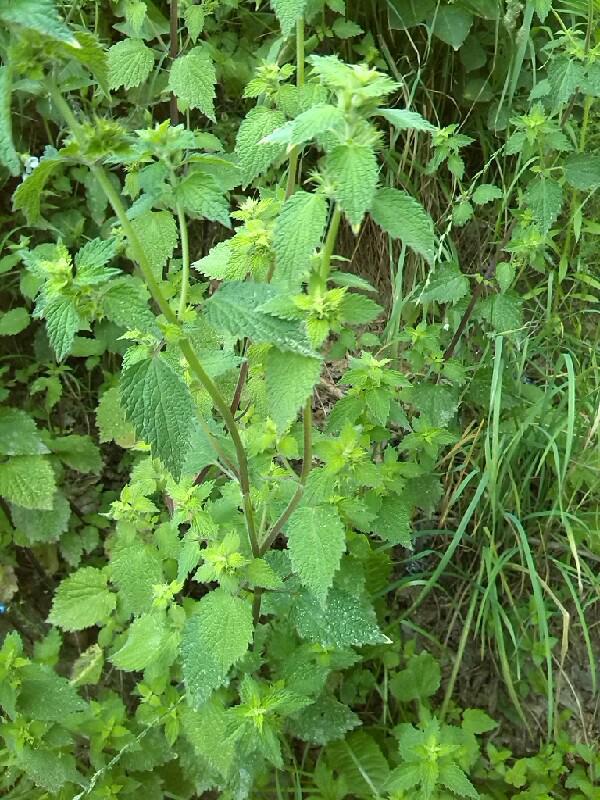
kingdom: Plantae
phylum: Tracheophyta
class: Magnoliopsida
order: Lamiales
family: Lamiaceae
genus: Ballota
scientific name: Ballota nigra
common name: Black horehound
